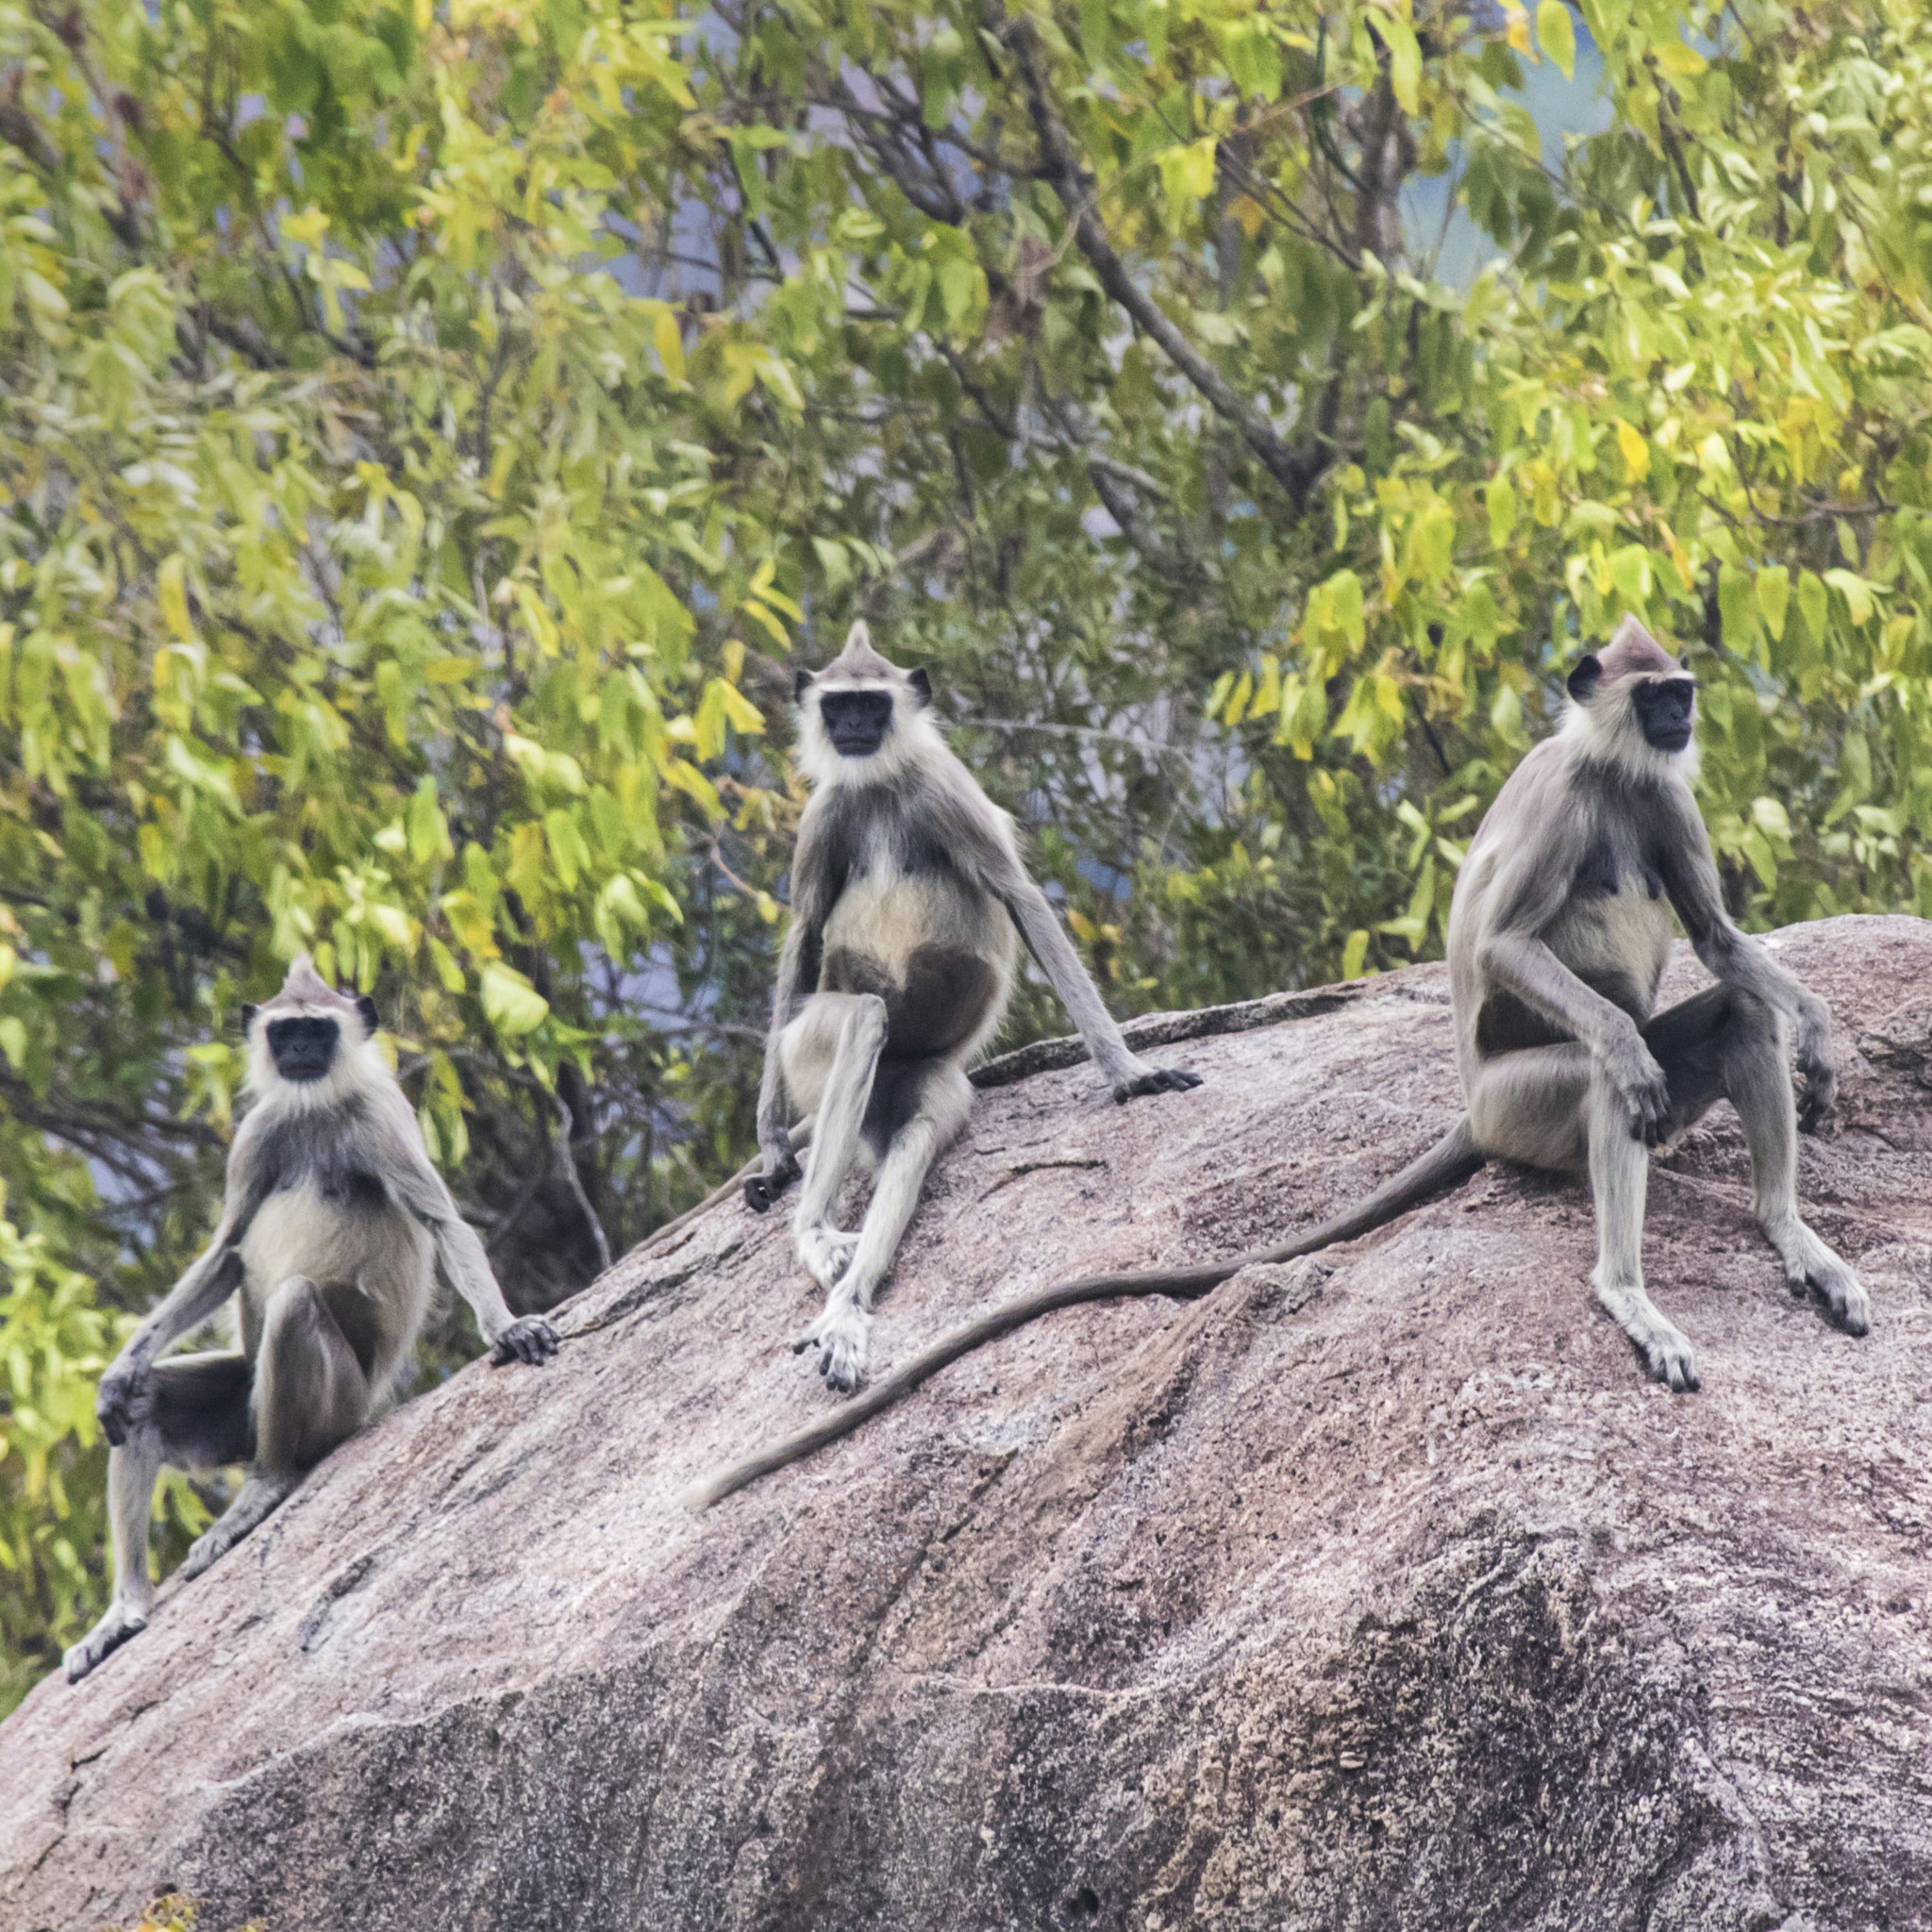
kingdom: Animalia
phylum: Chordata
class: Mammalia
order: Primates
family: Cercopithecidae
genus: Semnopithecus
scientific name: Semnopithecus priam
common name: Tufted gray langur
